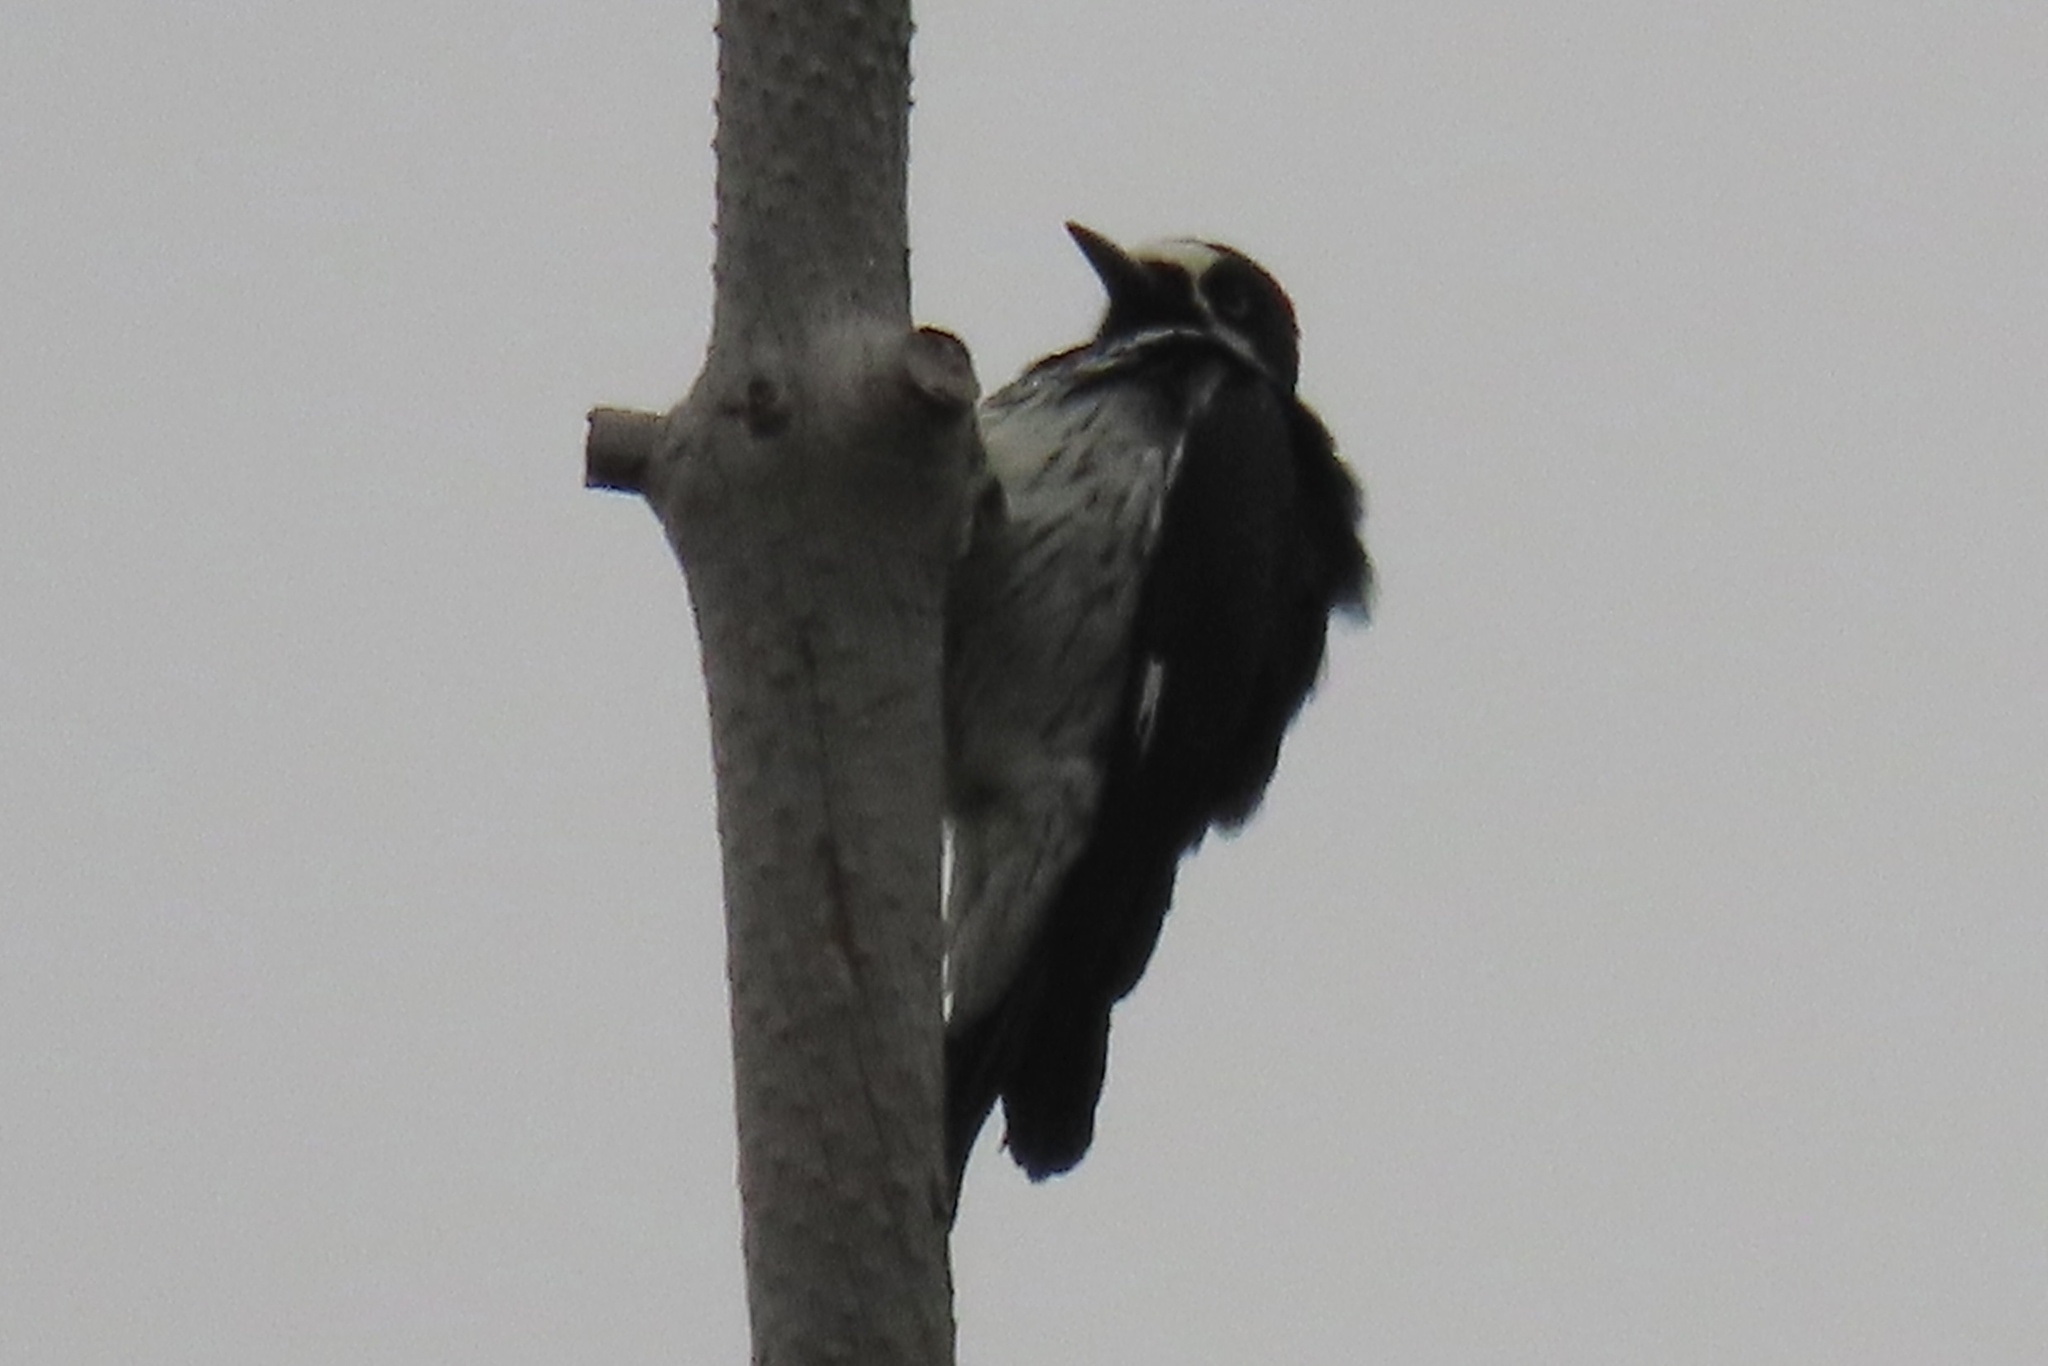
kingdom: Animalia
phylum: Chordata
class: Aves
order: Piciformes
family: Picidae
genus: Melanerpes
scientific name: Melanerpes formicivorus
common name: Acorn woodpecker
